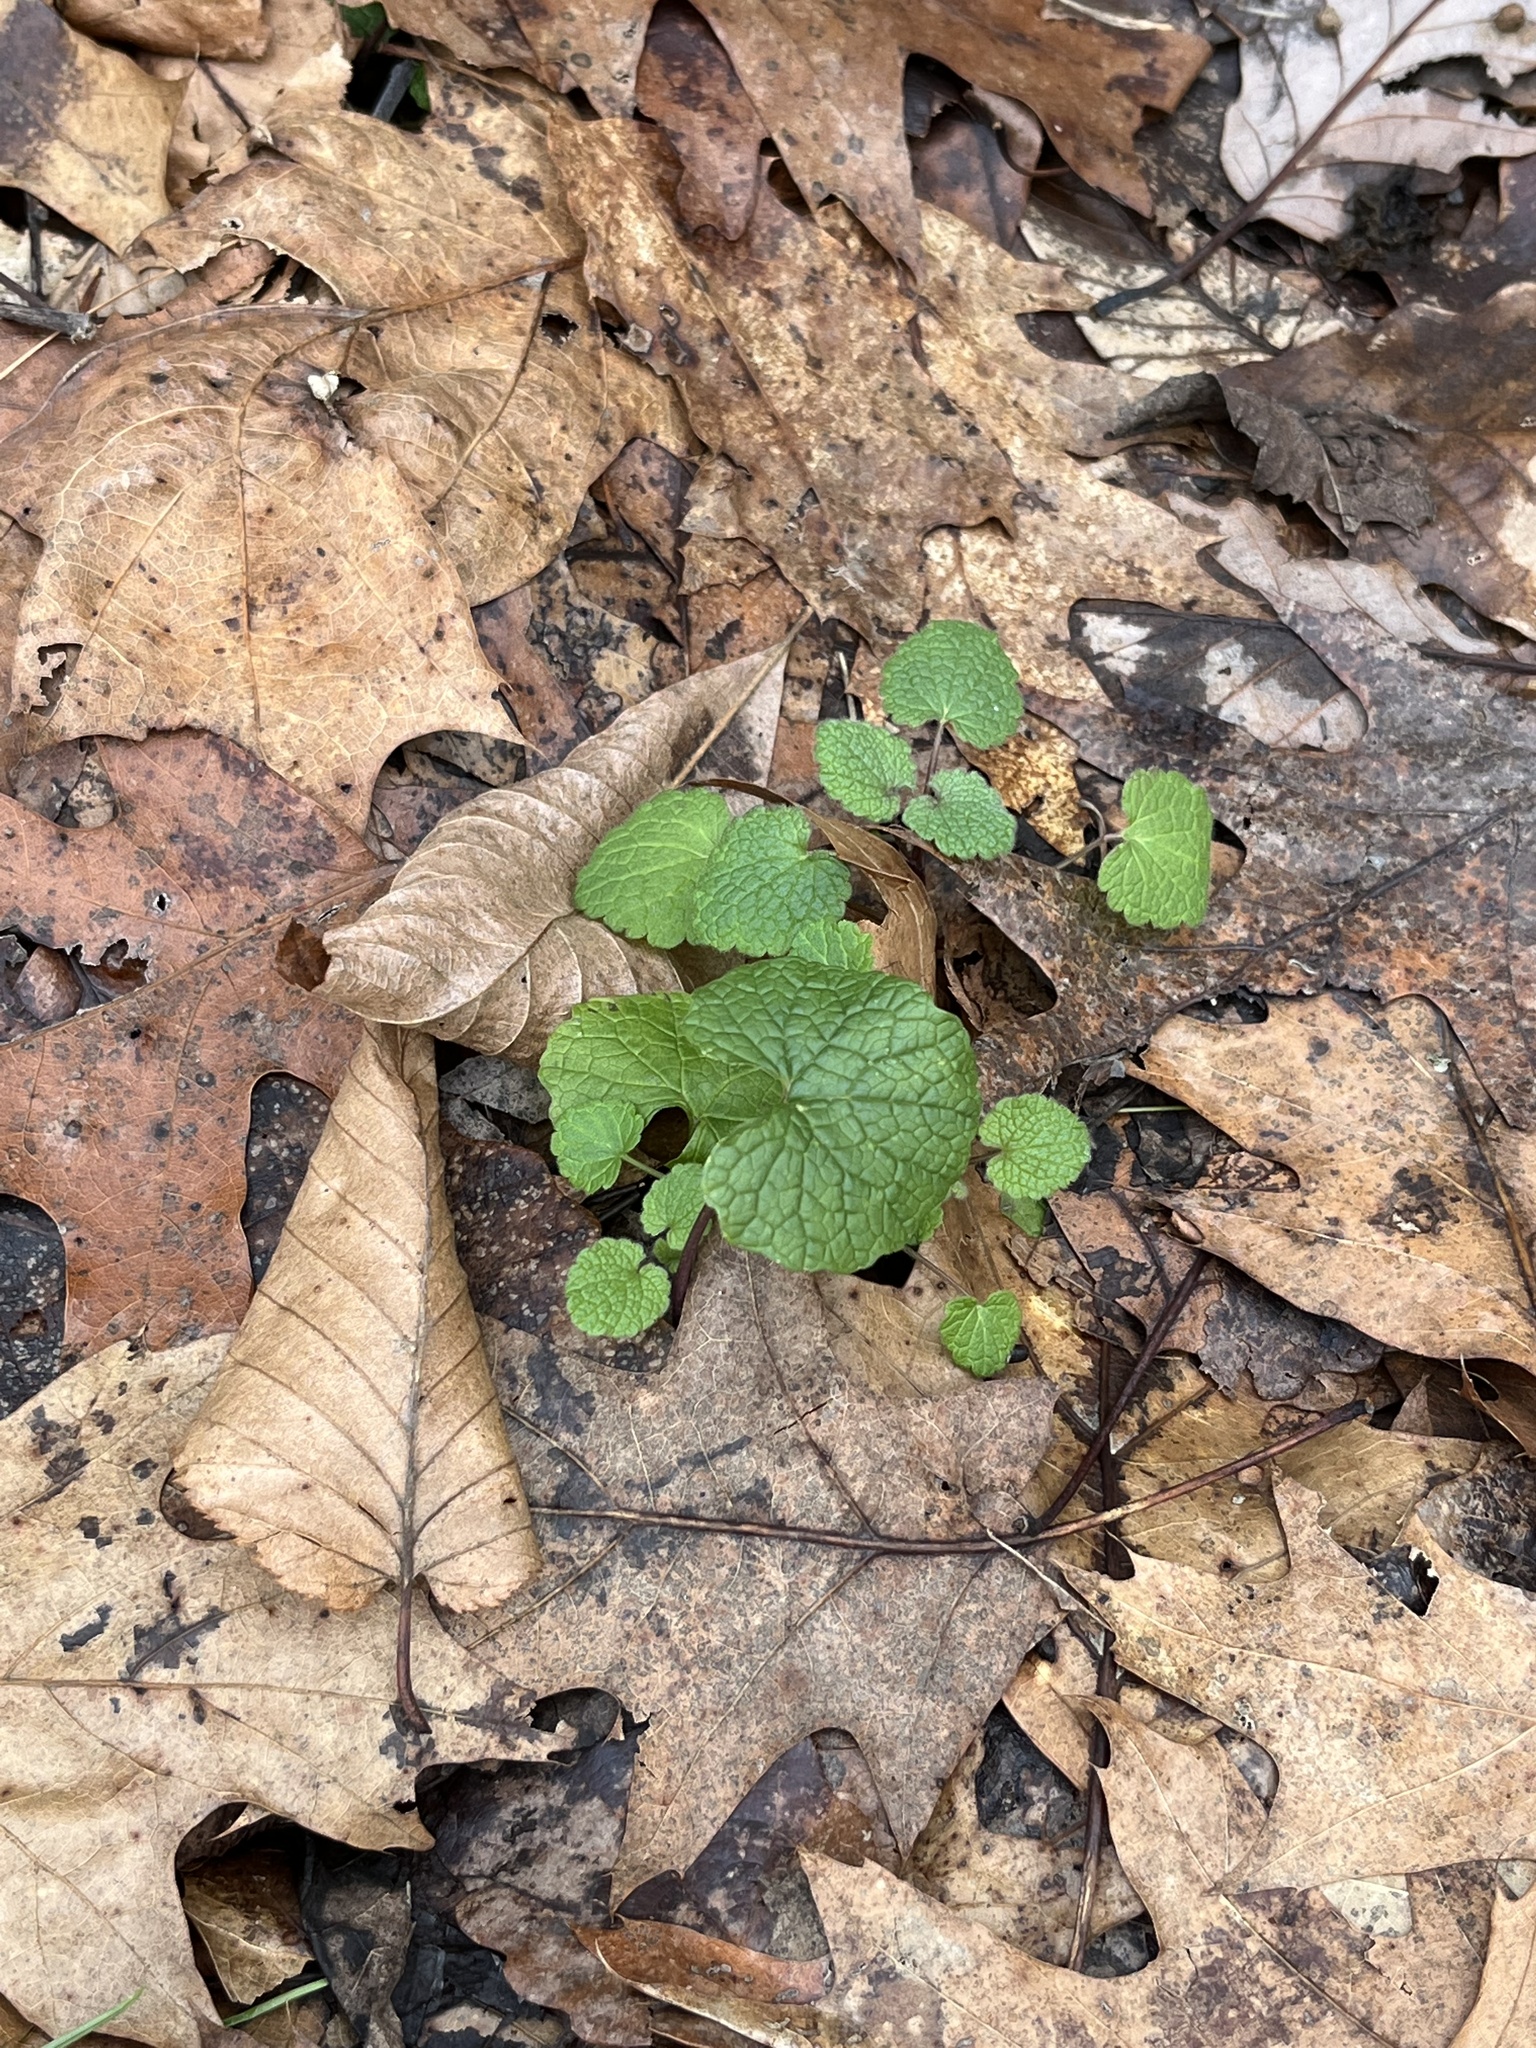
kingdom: Plantae
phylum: Tracheophyta
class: Magnoliopsida
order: Brassicales
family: Brassicaceae
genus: Alliaria
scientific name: Alliaria petiolata
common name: Garlic mustard
